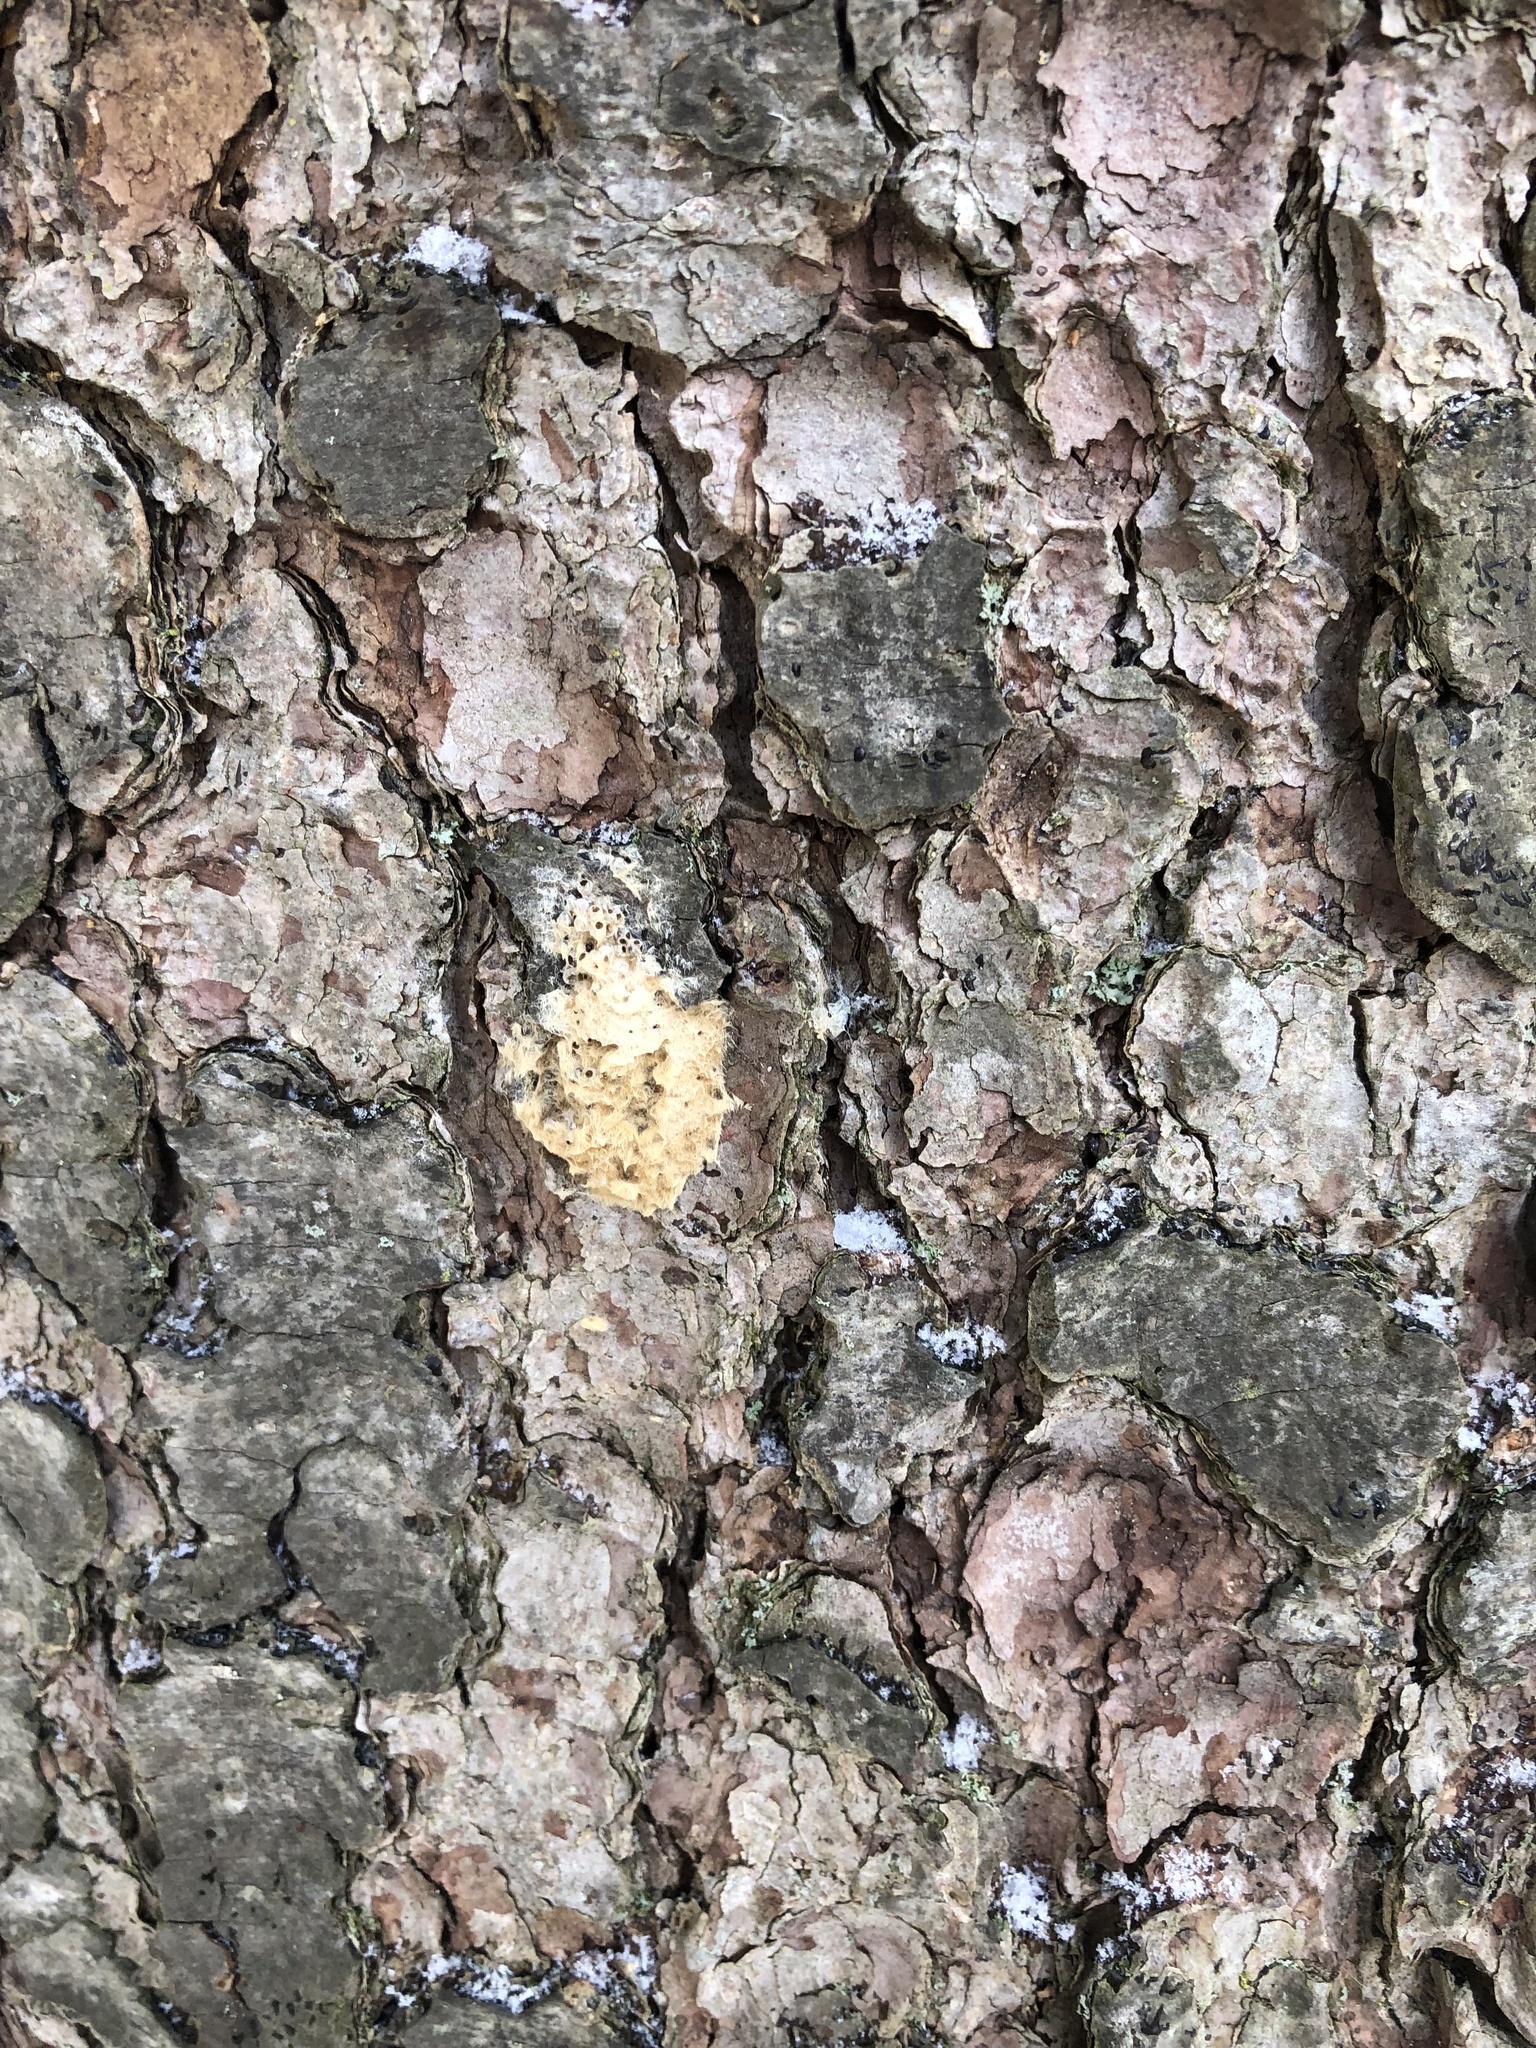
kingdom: Animalia
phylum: Arthropoda
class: Insecta
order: Lepidoptera
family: Erebidae
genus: Lymantria
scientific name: Lymantria dispar
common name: Gypsy moth
